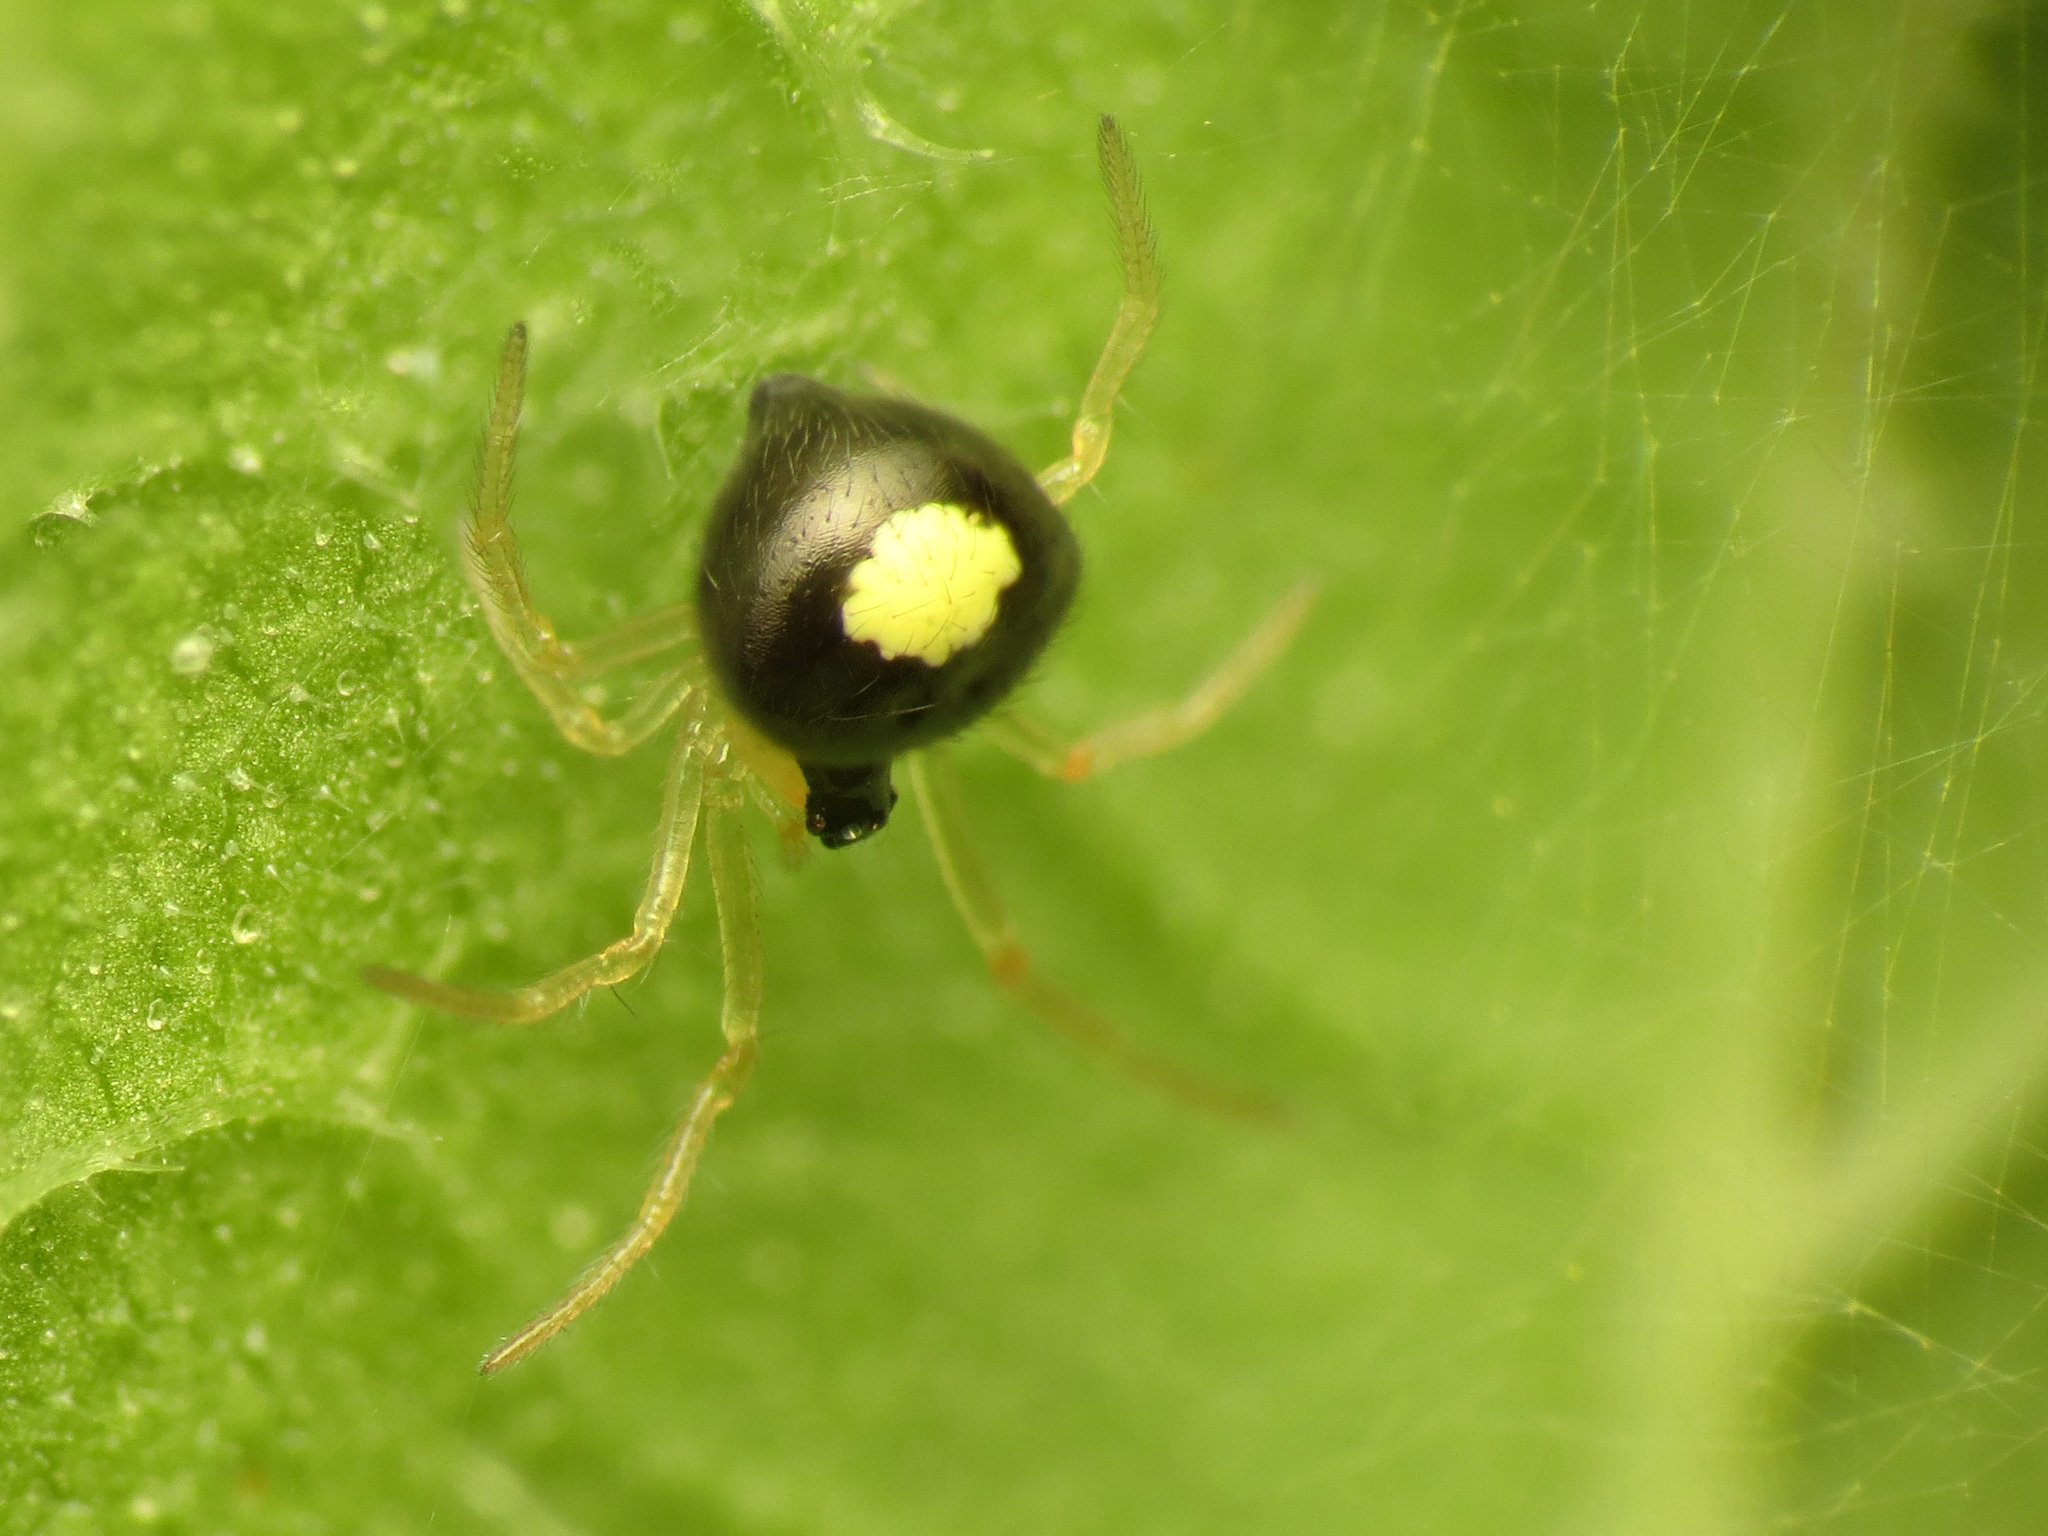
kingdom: Animalia
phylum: Arthropoda
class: Arachnida
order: Araneae
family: Theridiidae
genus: Theridula
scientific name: Theridula opulenta
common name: Cobweb spiders
